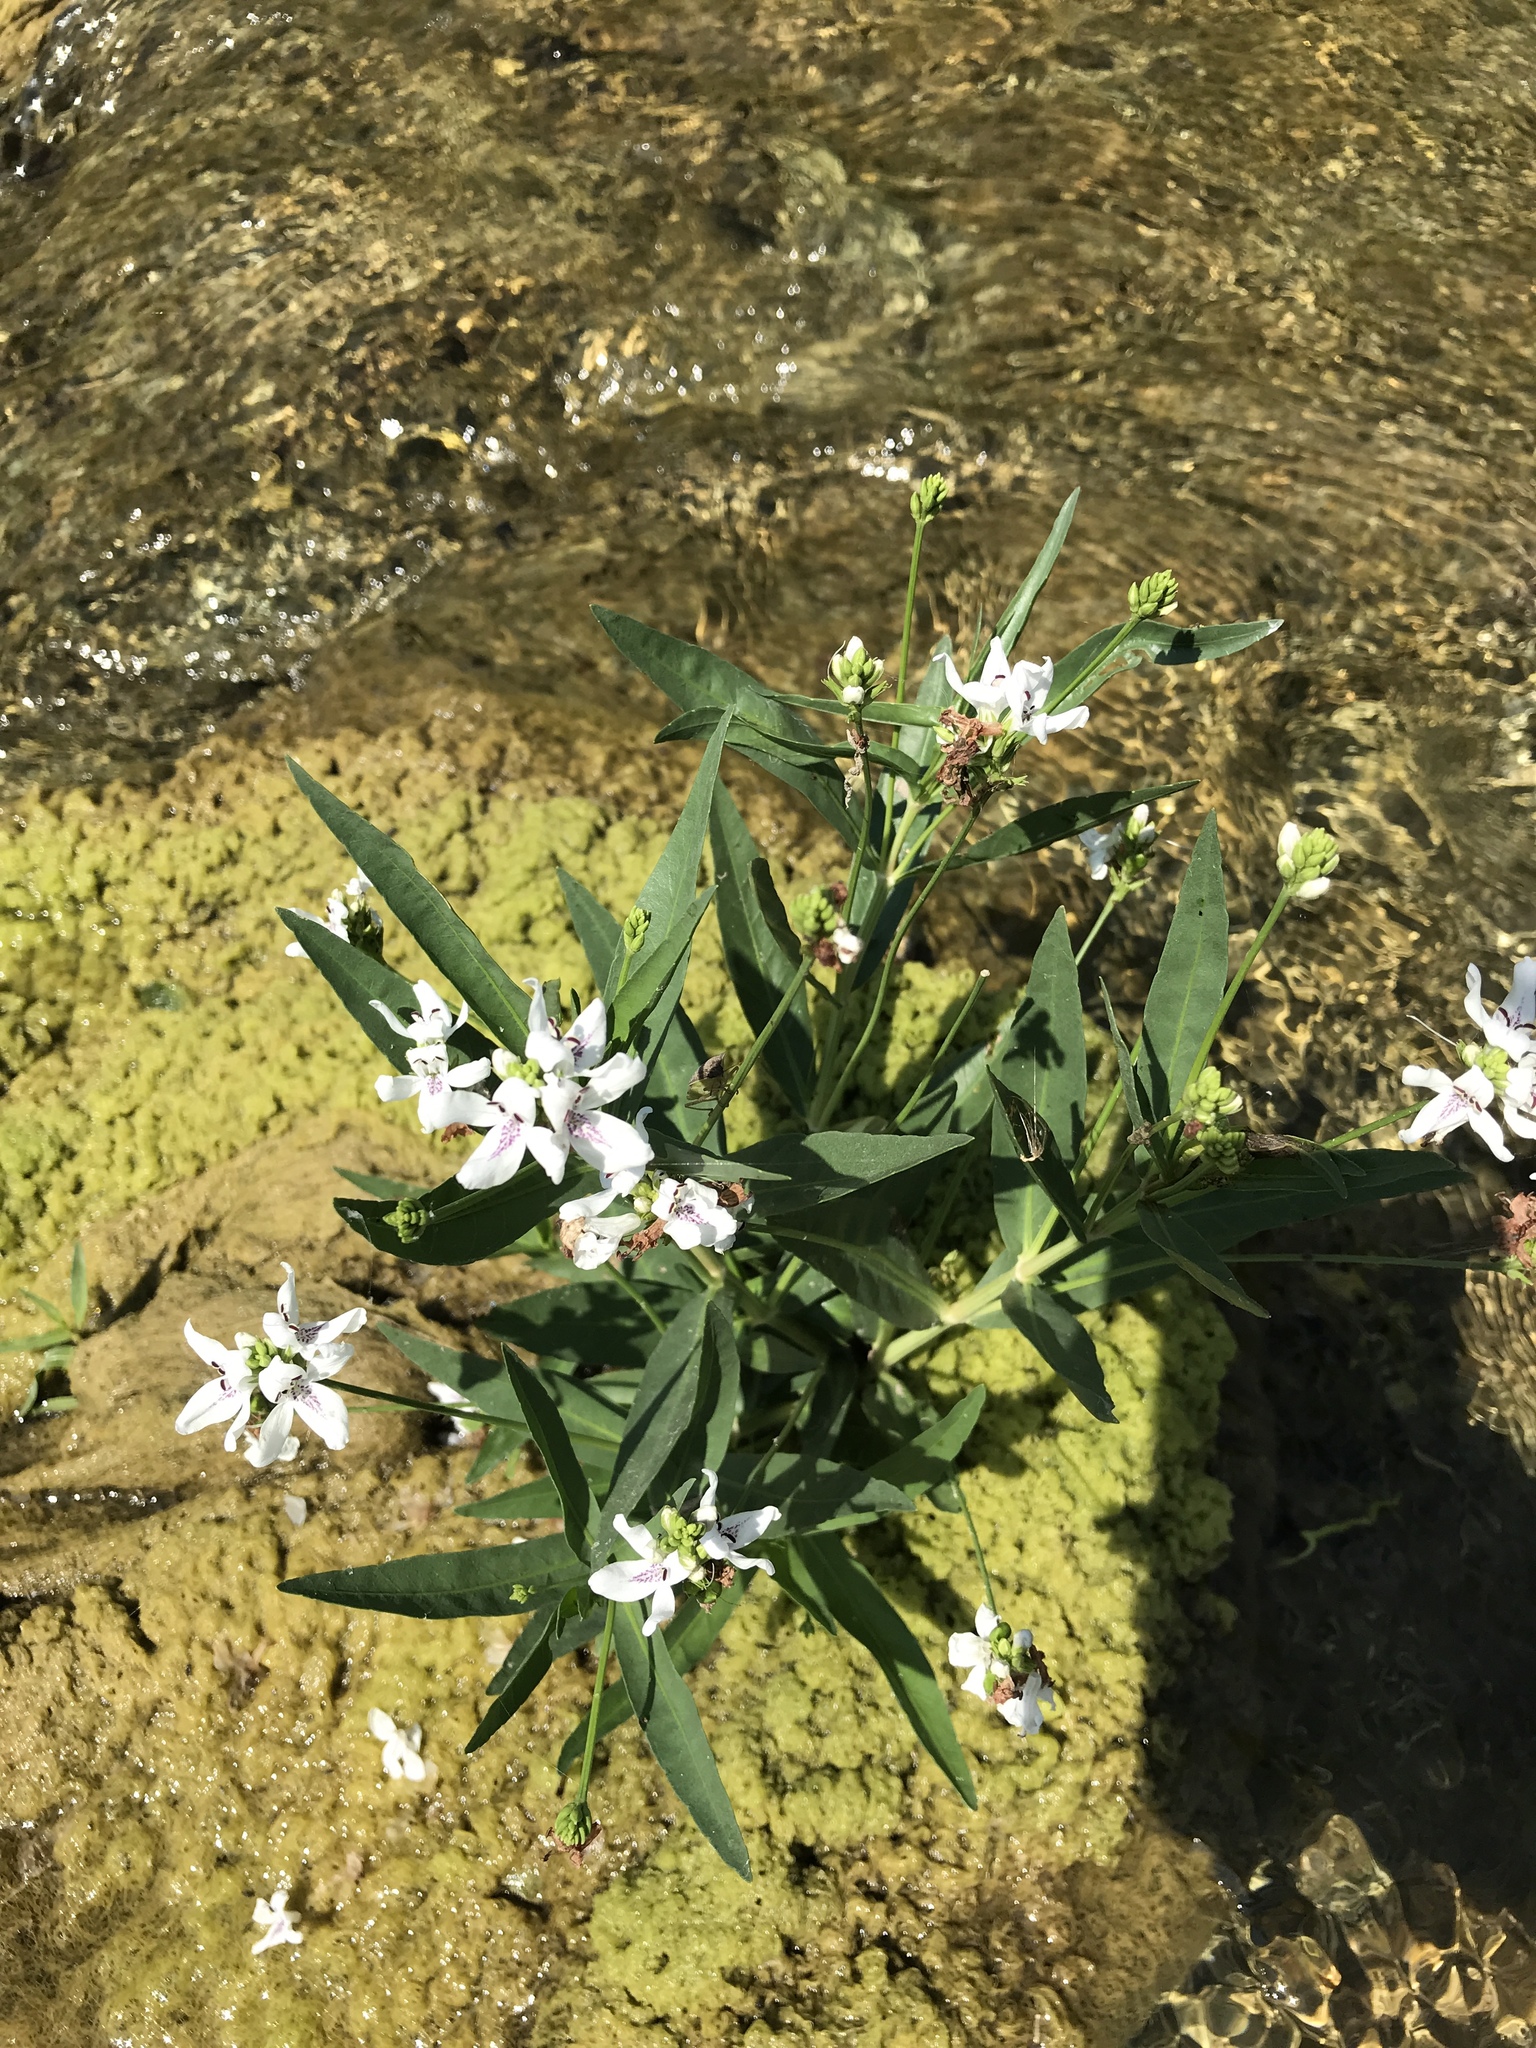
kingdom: Plantae
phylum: Tracheophyta
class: Magnoliopsida
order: Lamiales
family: Acanthaceae
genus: Dianthera
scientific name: Dianthera americana
